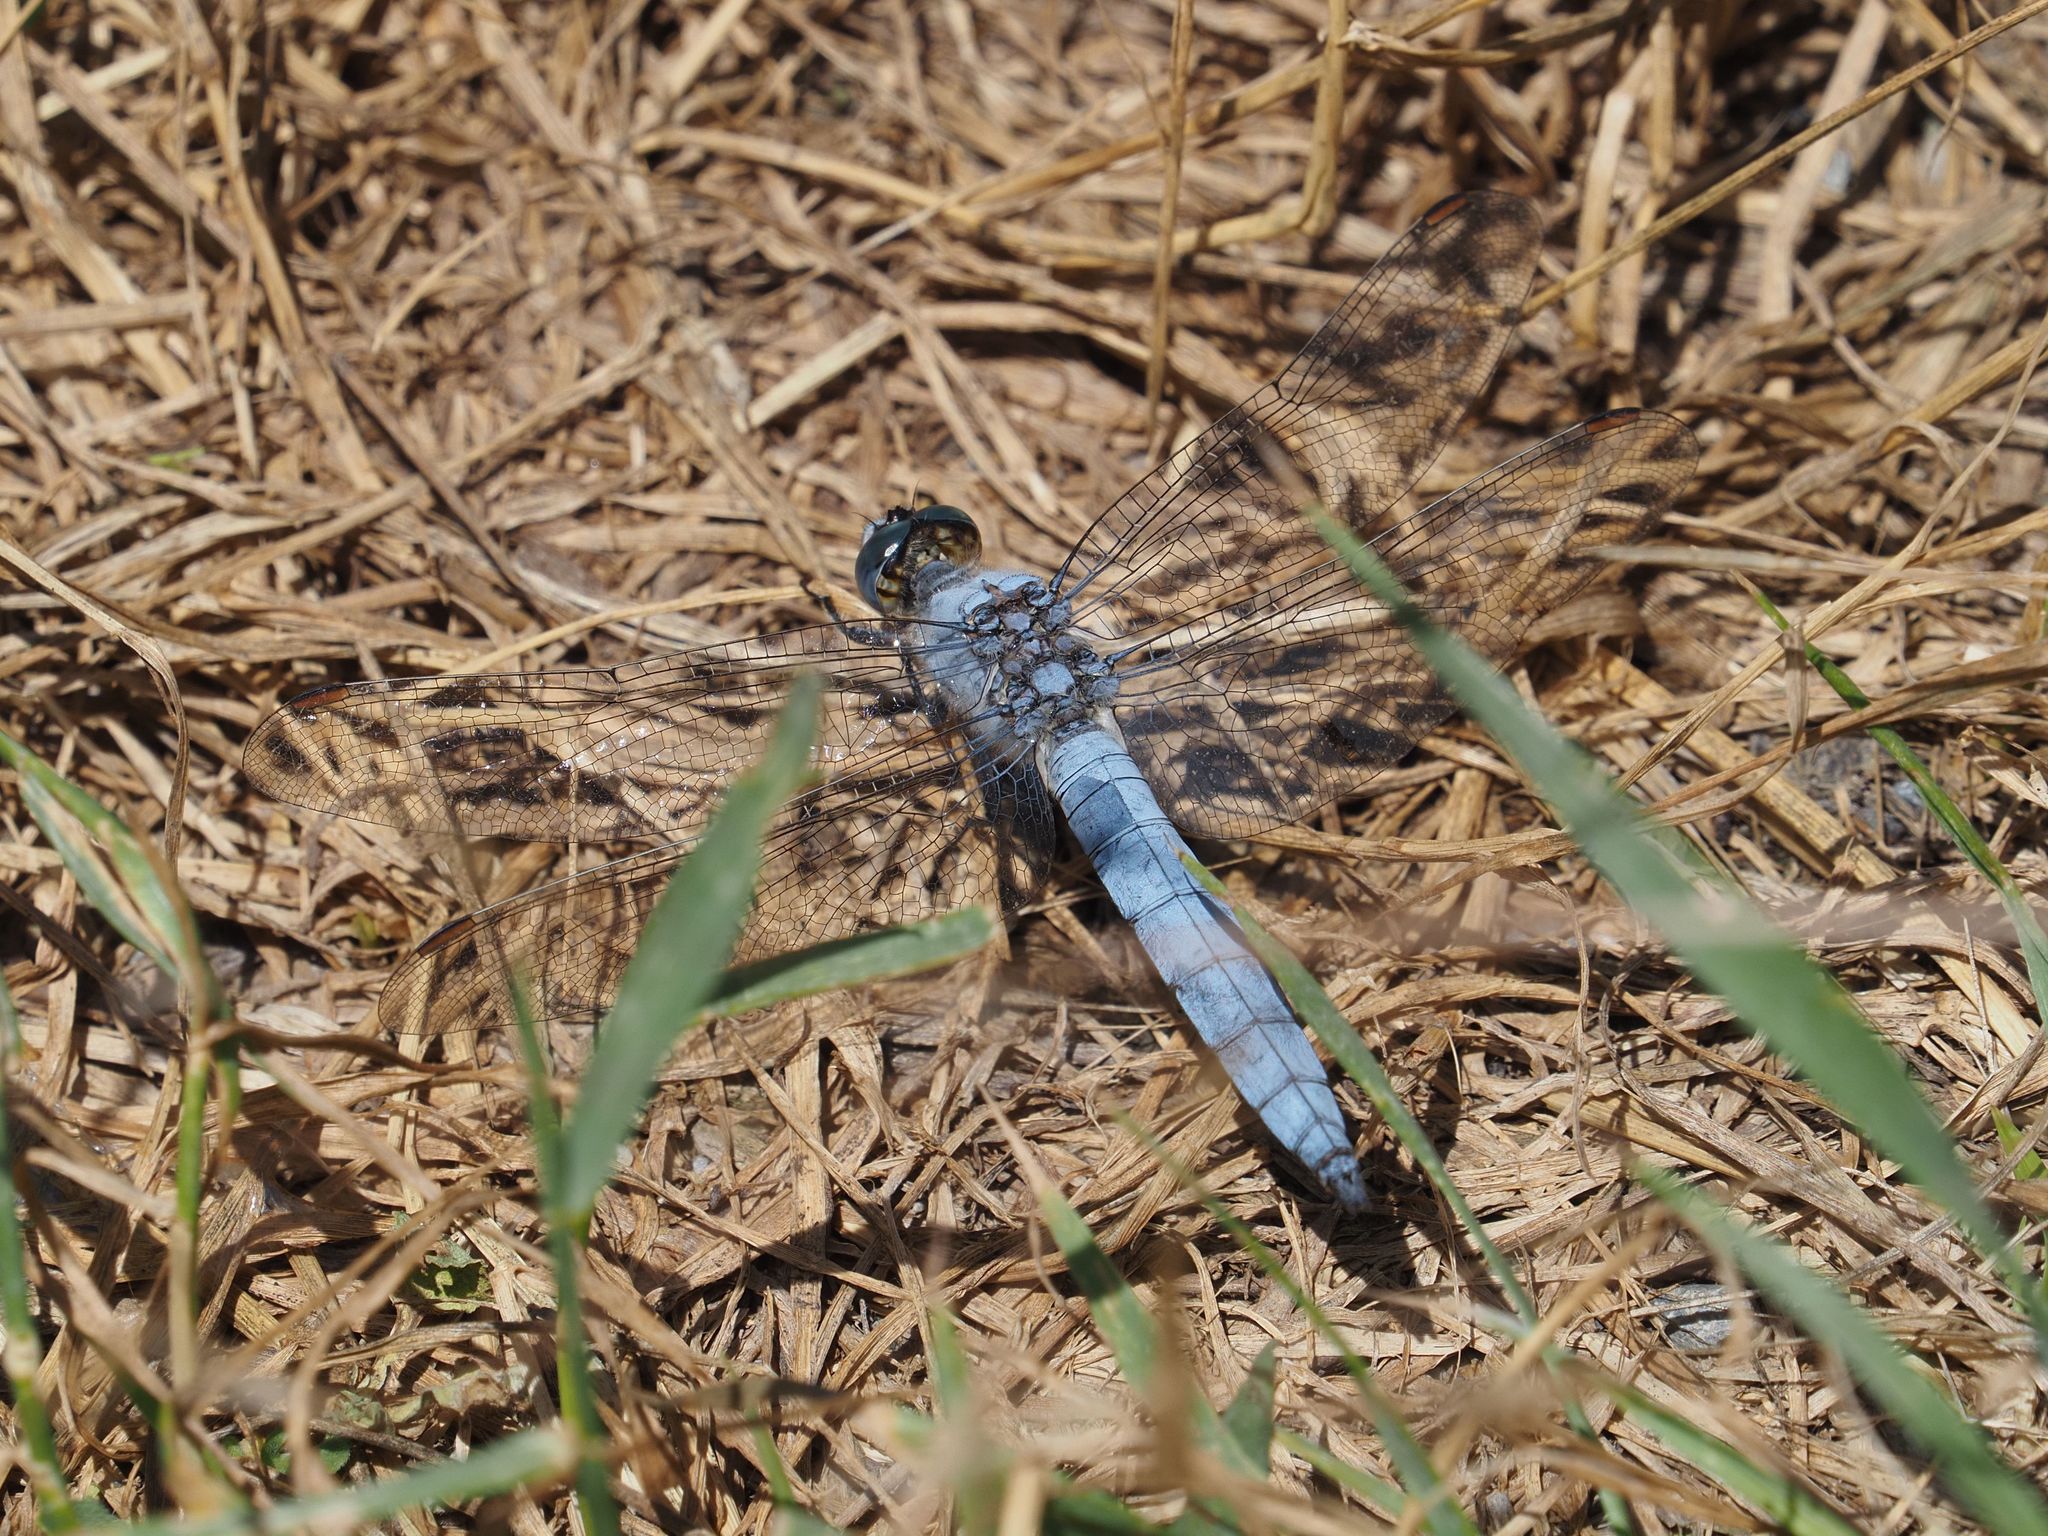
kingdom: Animalia
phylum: Arthropoda
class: Insecta
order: Odonata
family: Libellulidae
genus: Orthetrum
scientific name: Orthetrum brunneum
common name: Southern skimmer
